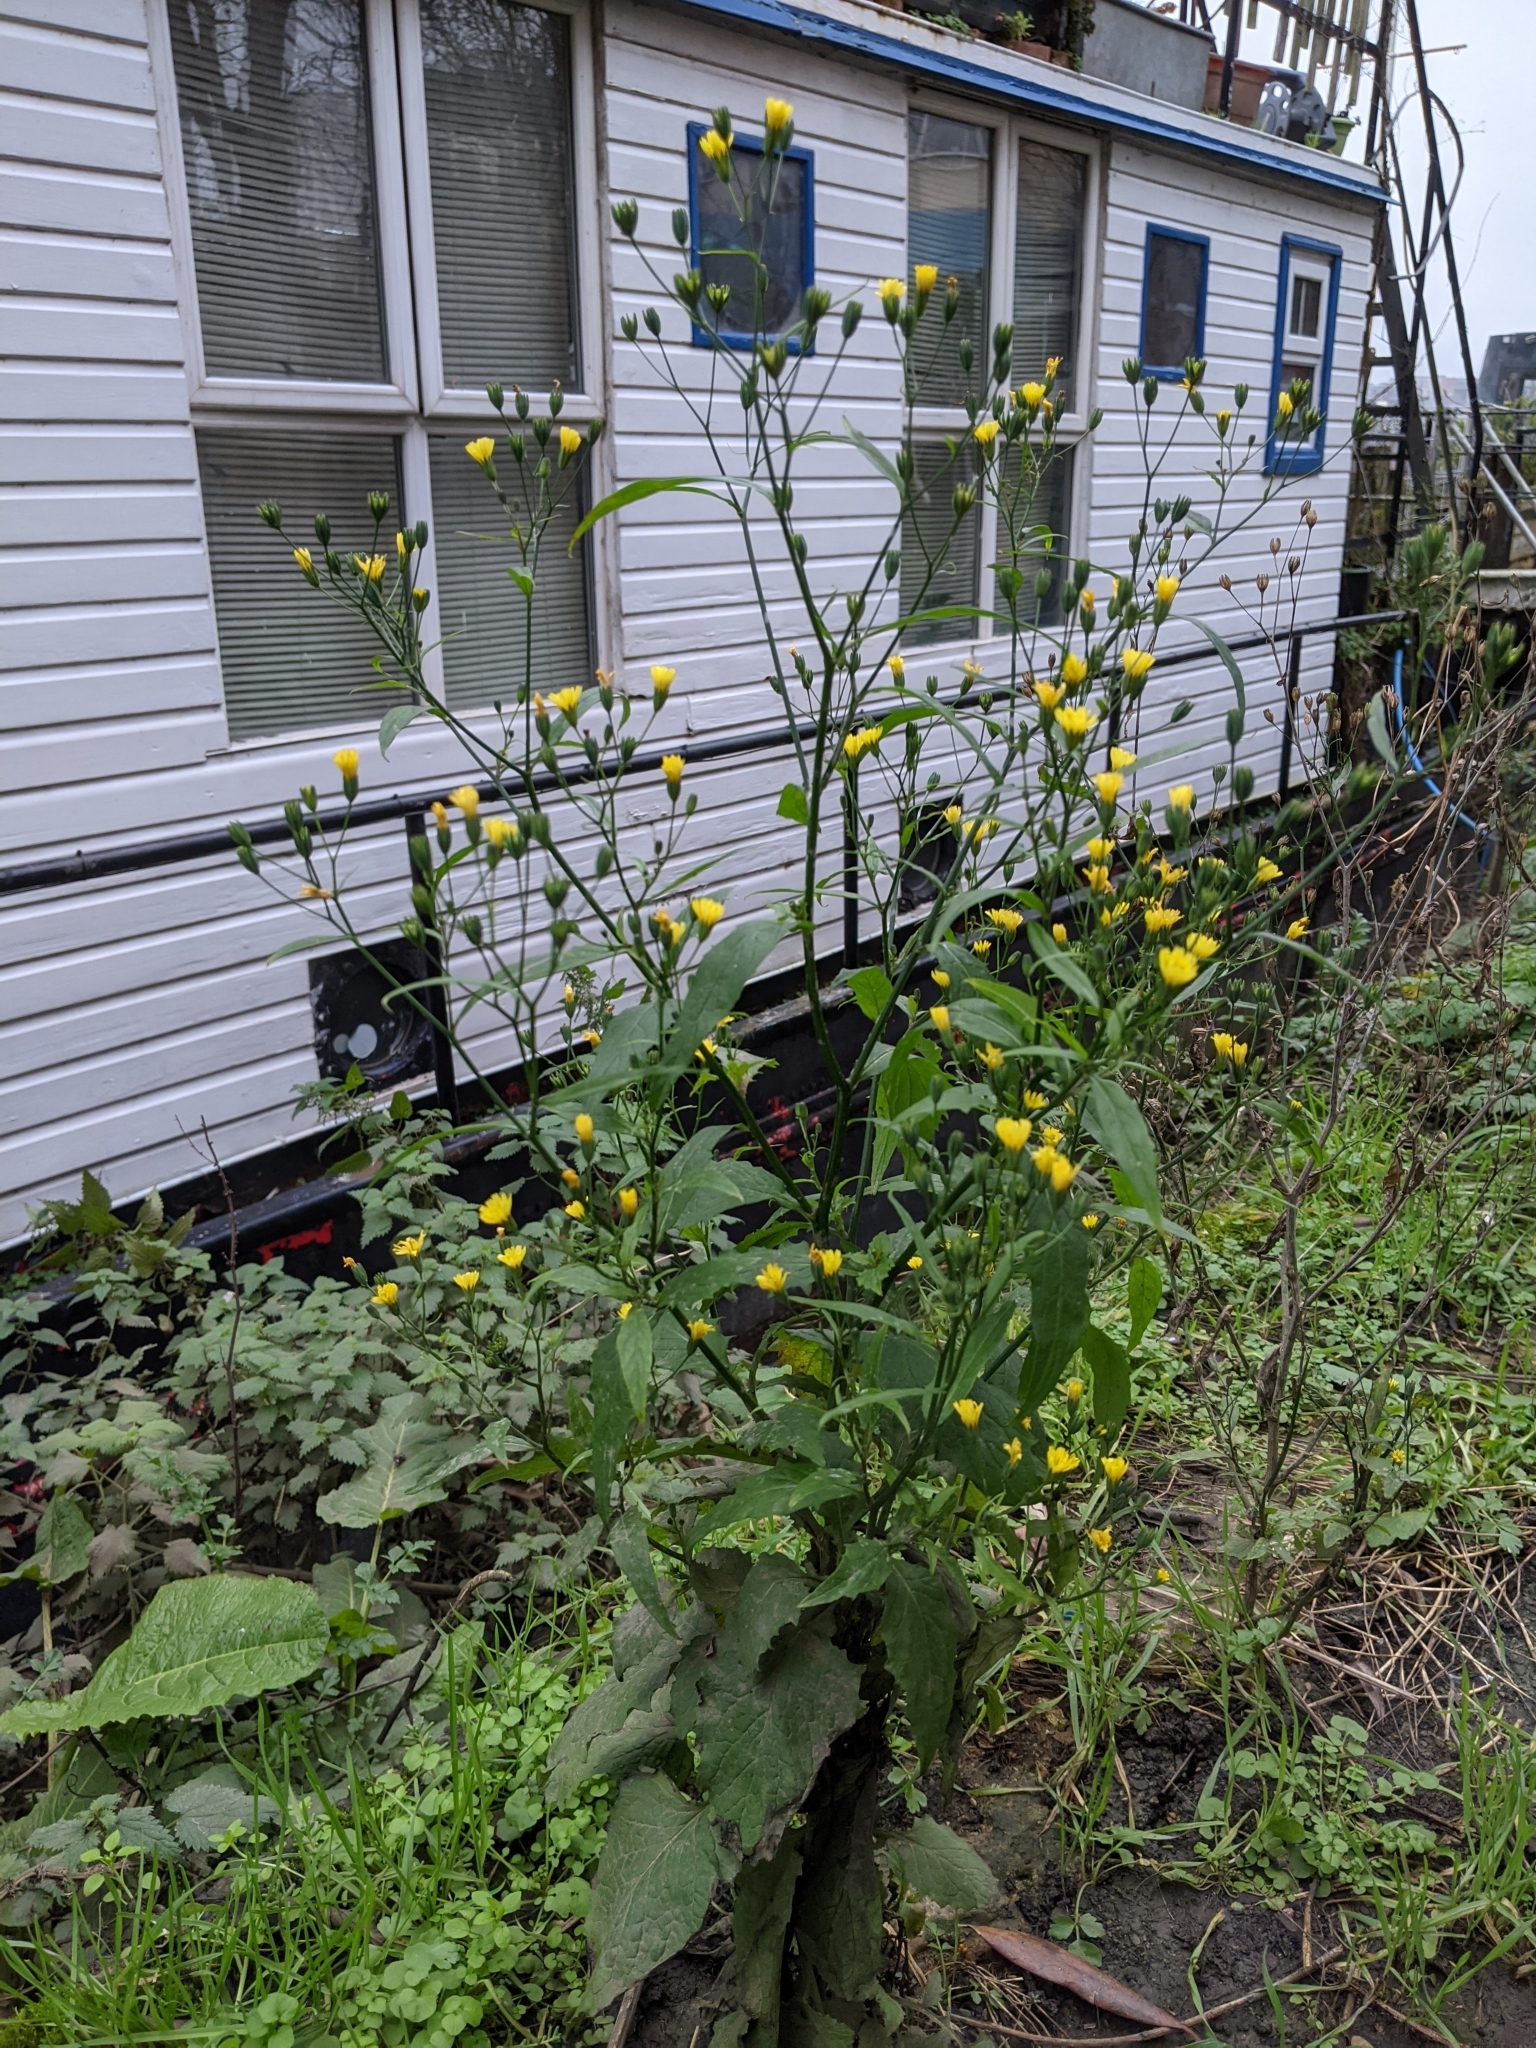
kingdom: Plantae
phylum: Tracheophyta
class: Magnoliopsida
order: Asterales
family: Asteraceae
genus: Lapsana
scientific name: Lapsana communis
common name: Nipplewort
